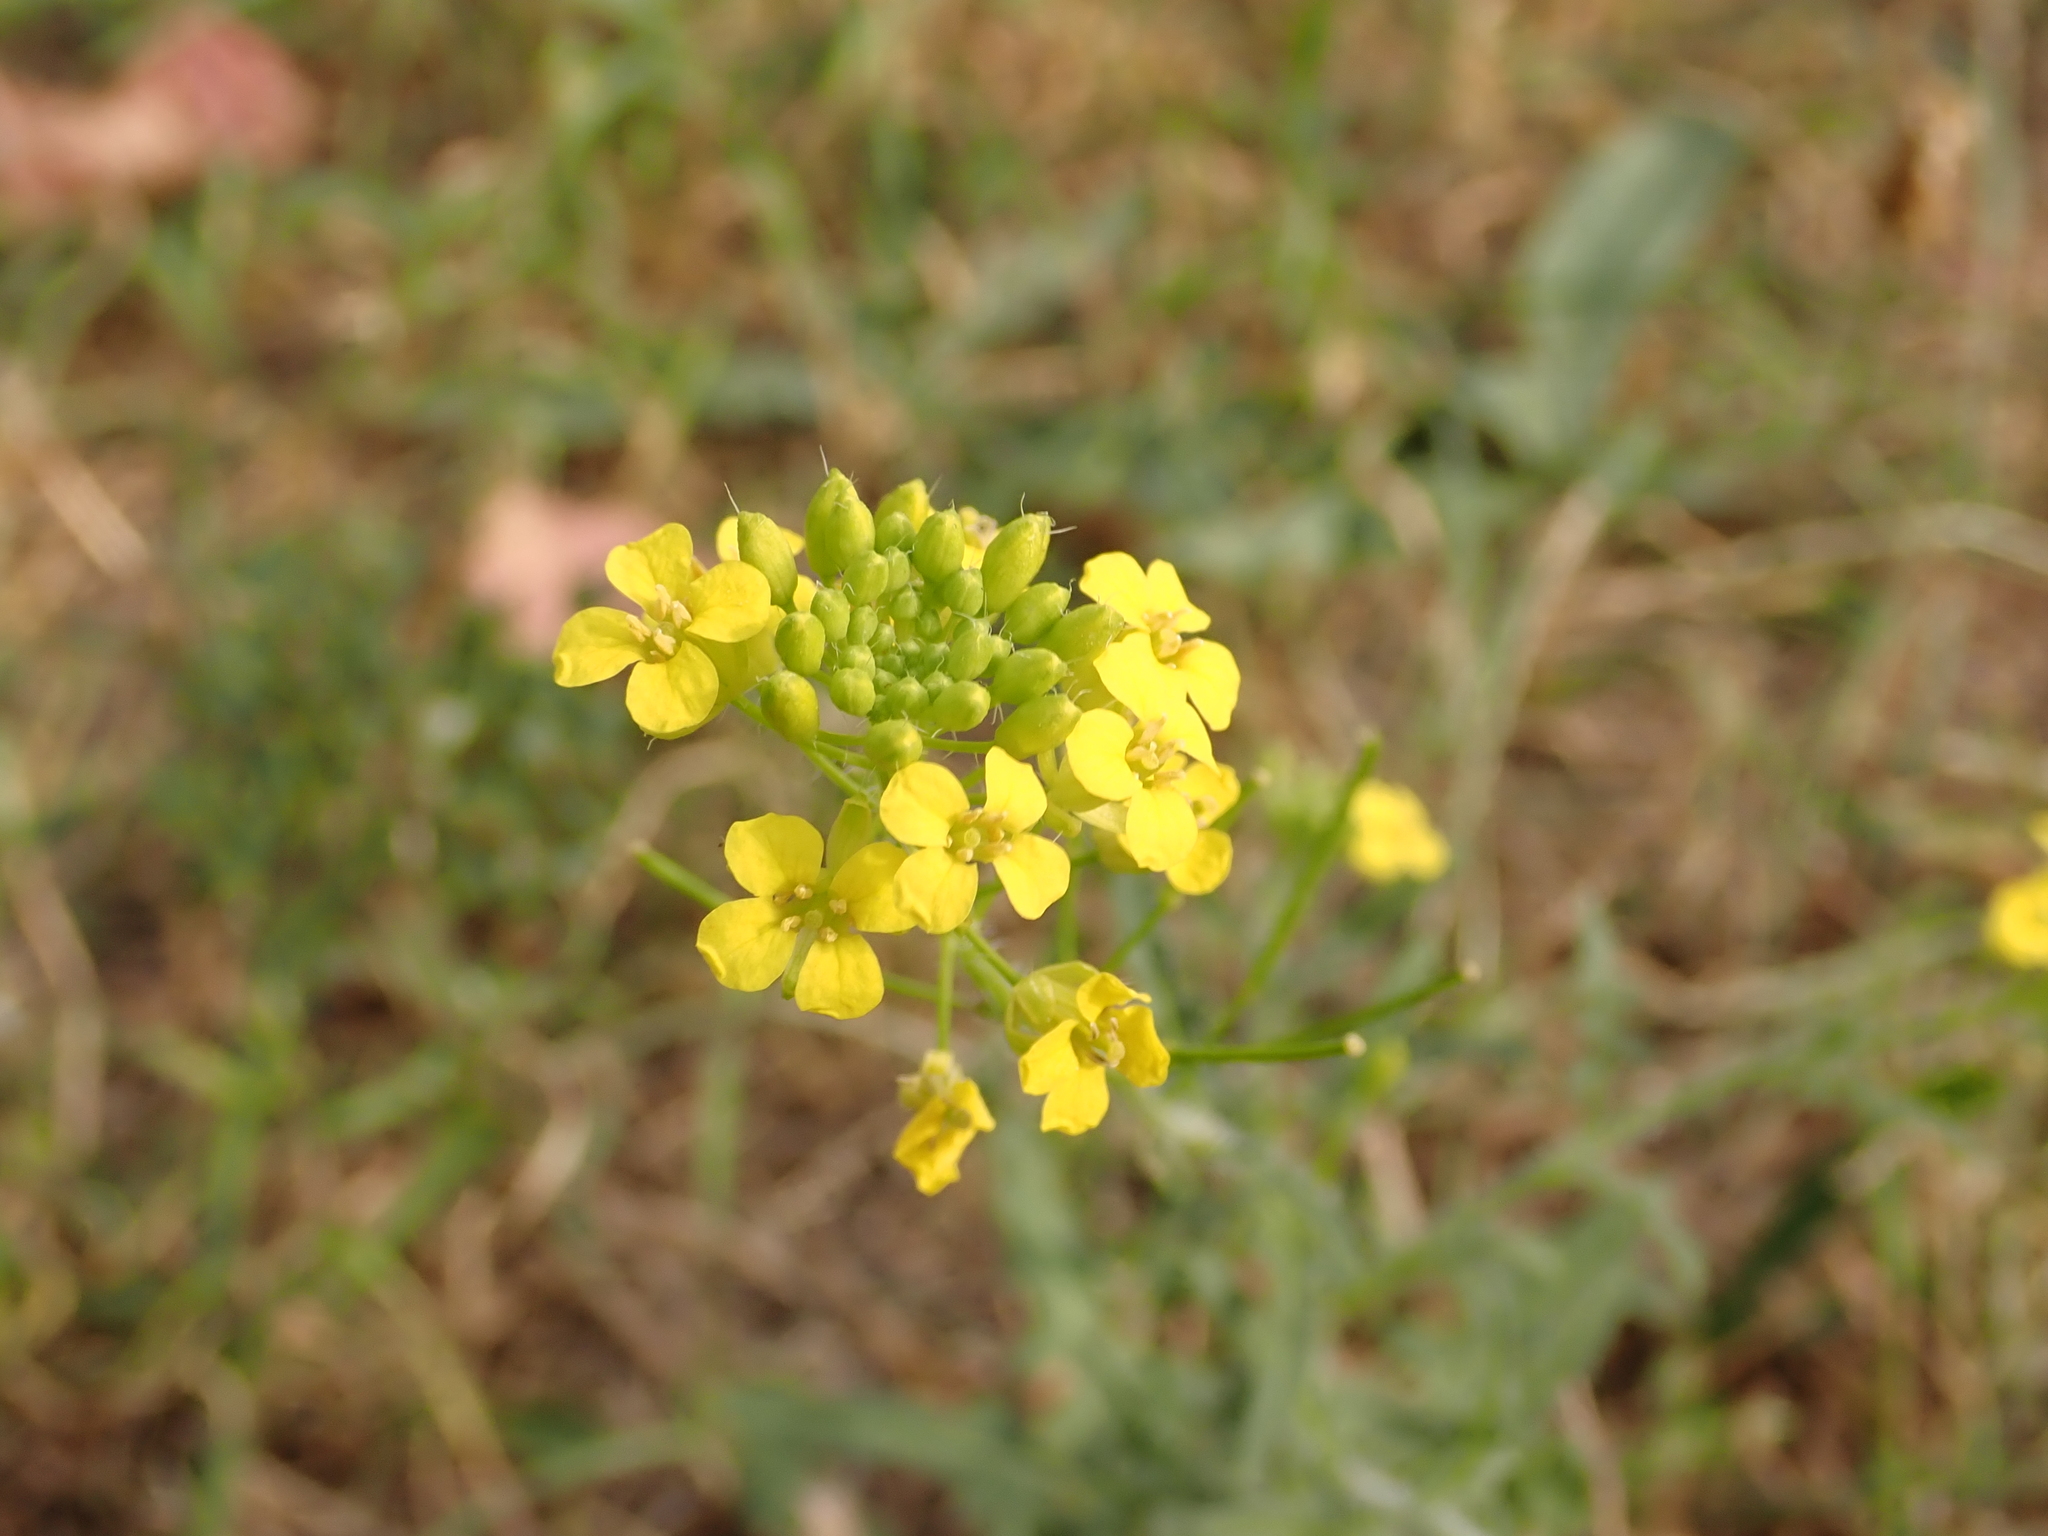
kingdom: Plantae
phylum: Tracheophyta
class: Magnoliopsida
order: Brassicales
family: Brassicaceae
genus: Sisymbrium
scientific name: Sisymbrium loeselii
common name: False london-rocket
